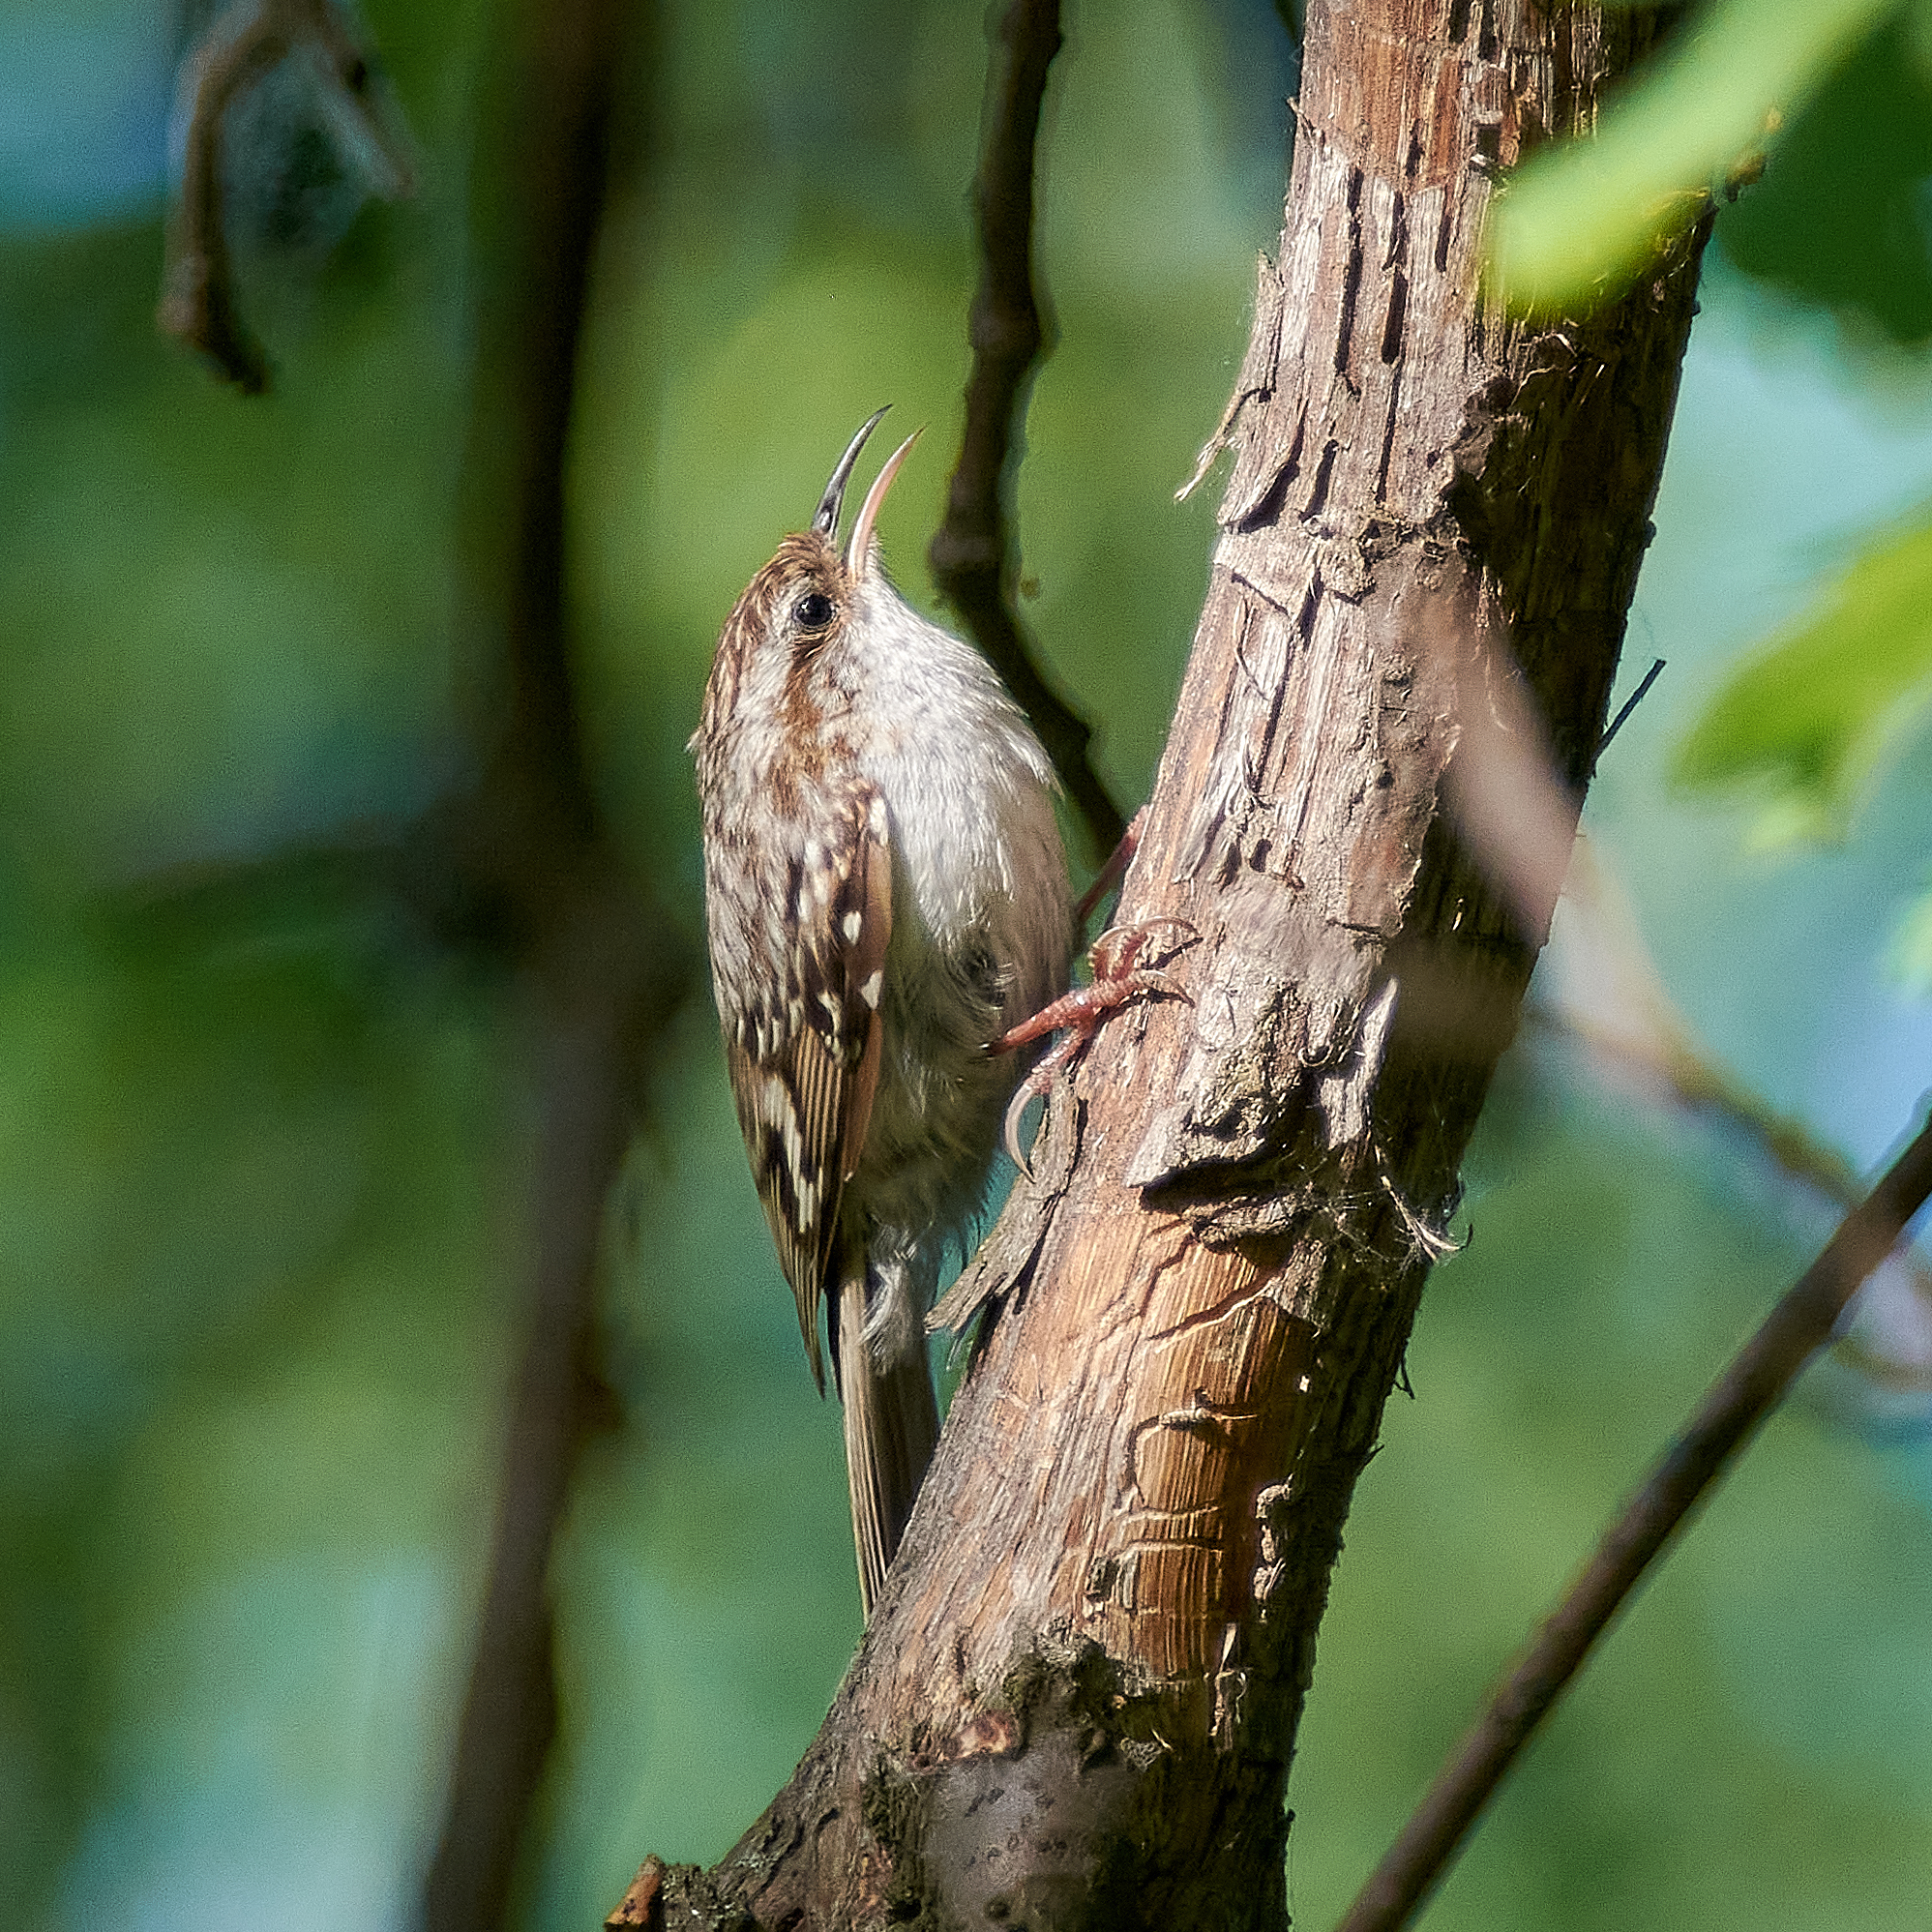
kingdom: Animalia
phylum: Chordata
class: Aves
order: Passeriformes
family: Certhiidae
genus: Certhia
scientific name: Certhia familiaris
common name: Eurasian treecreeper
